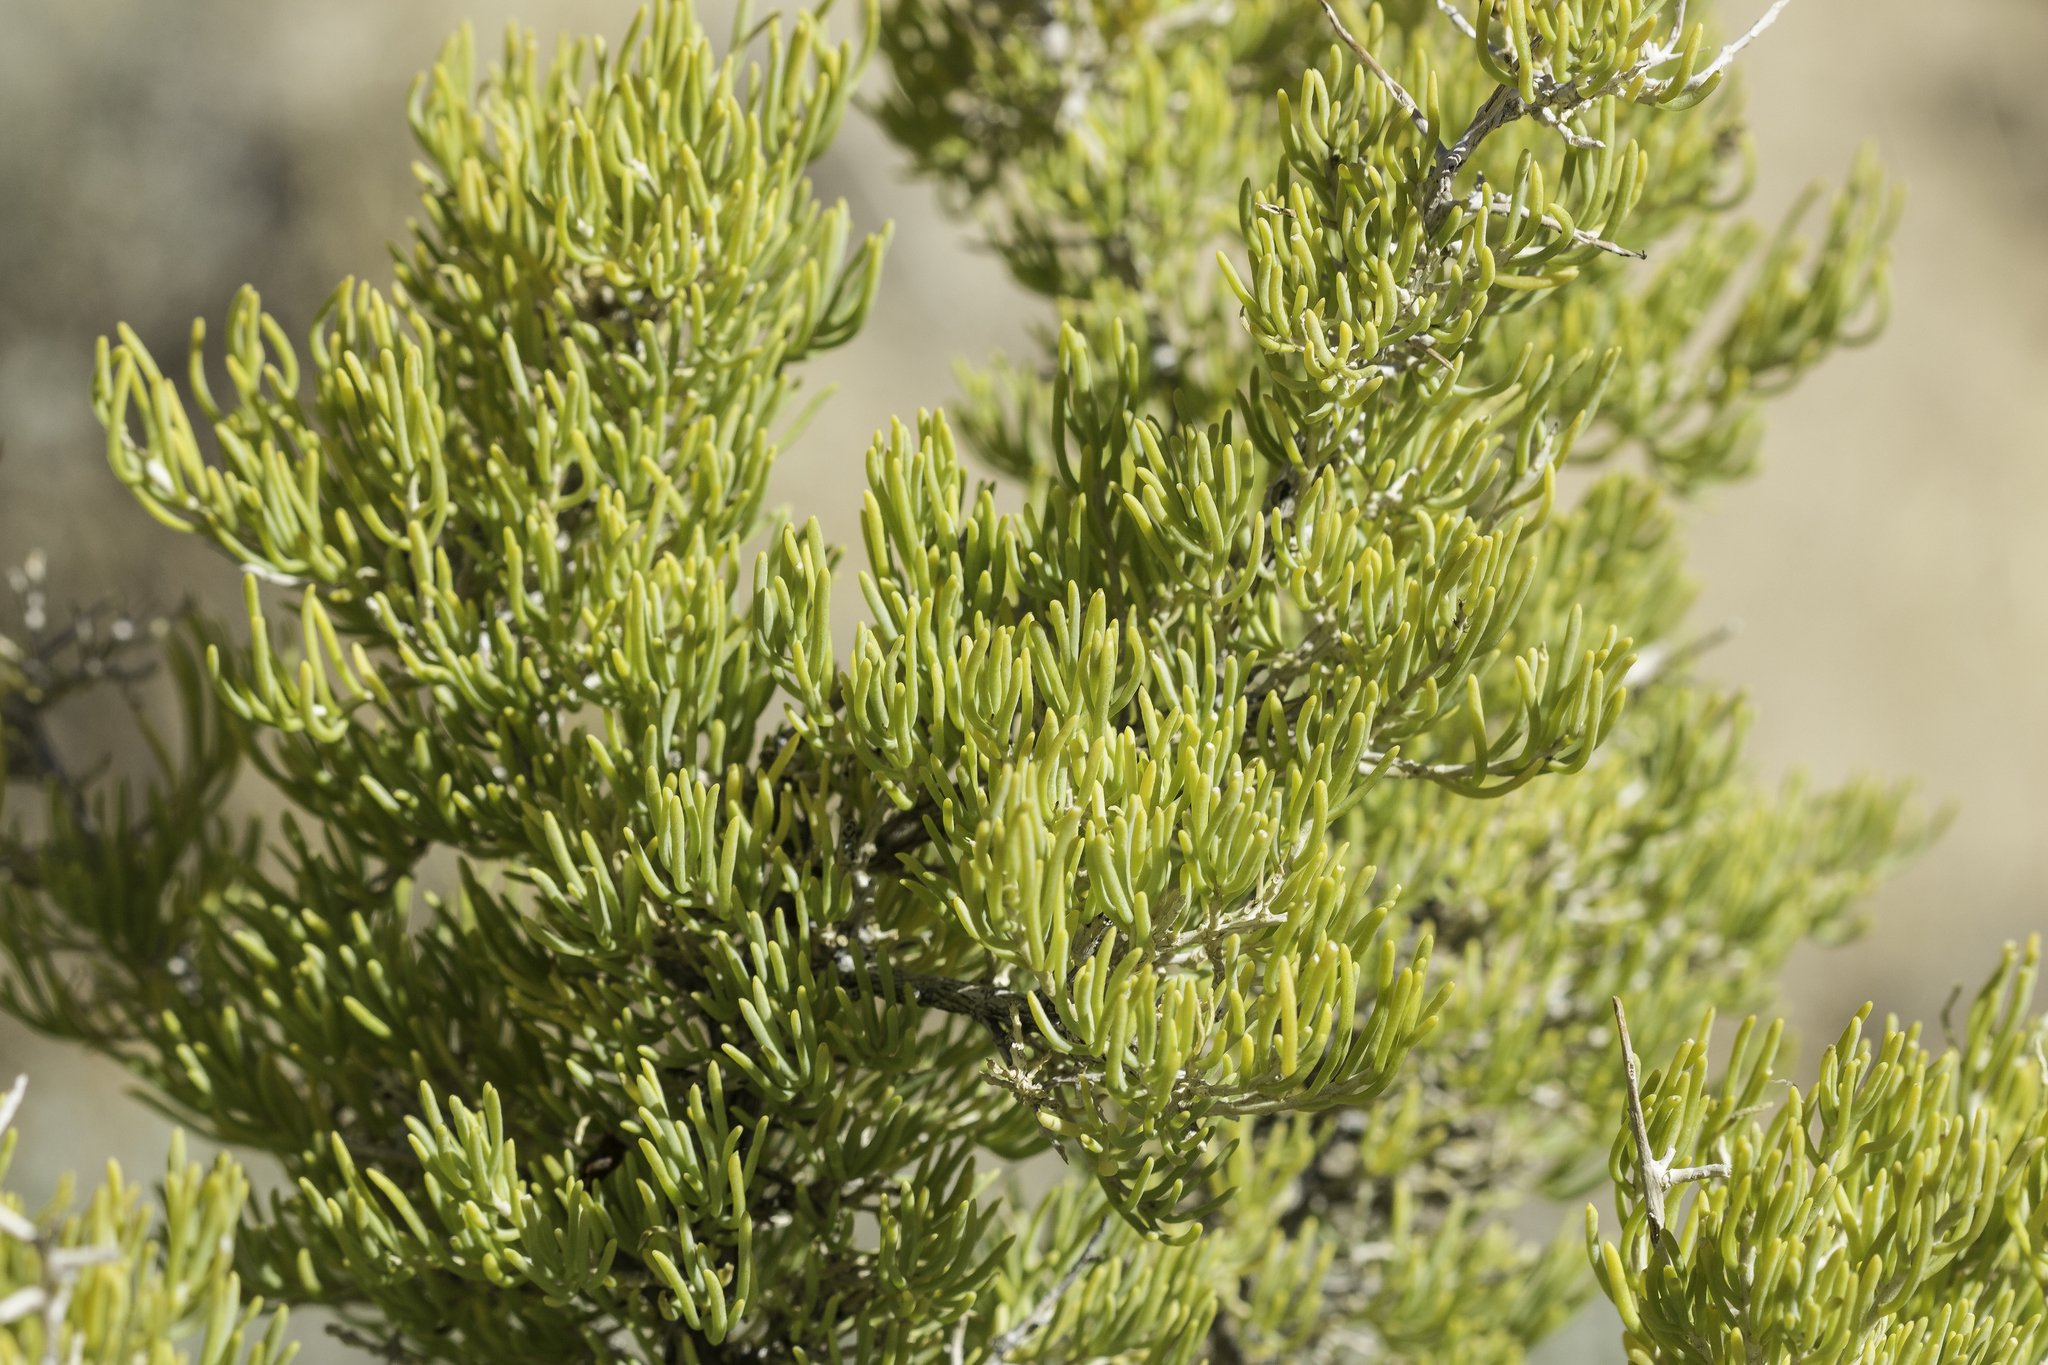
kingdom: Plantae
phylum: Tracheophyta
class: Magnoliopsida
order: Caryophyllales
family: Sarcobataceae
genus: Sarcobatus
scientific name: Sarcobatus vermiculatus
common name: Greasewood
